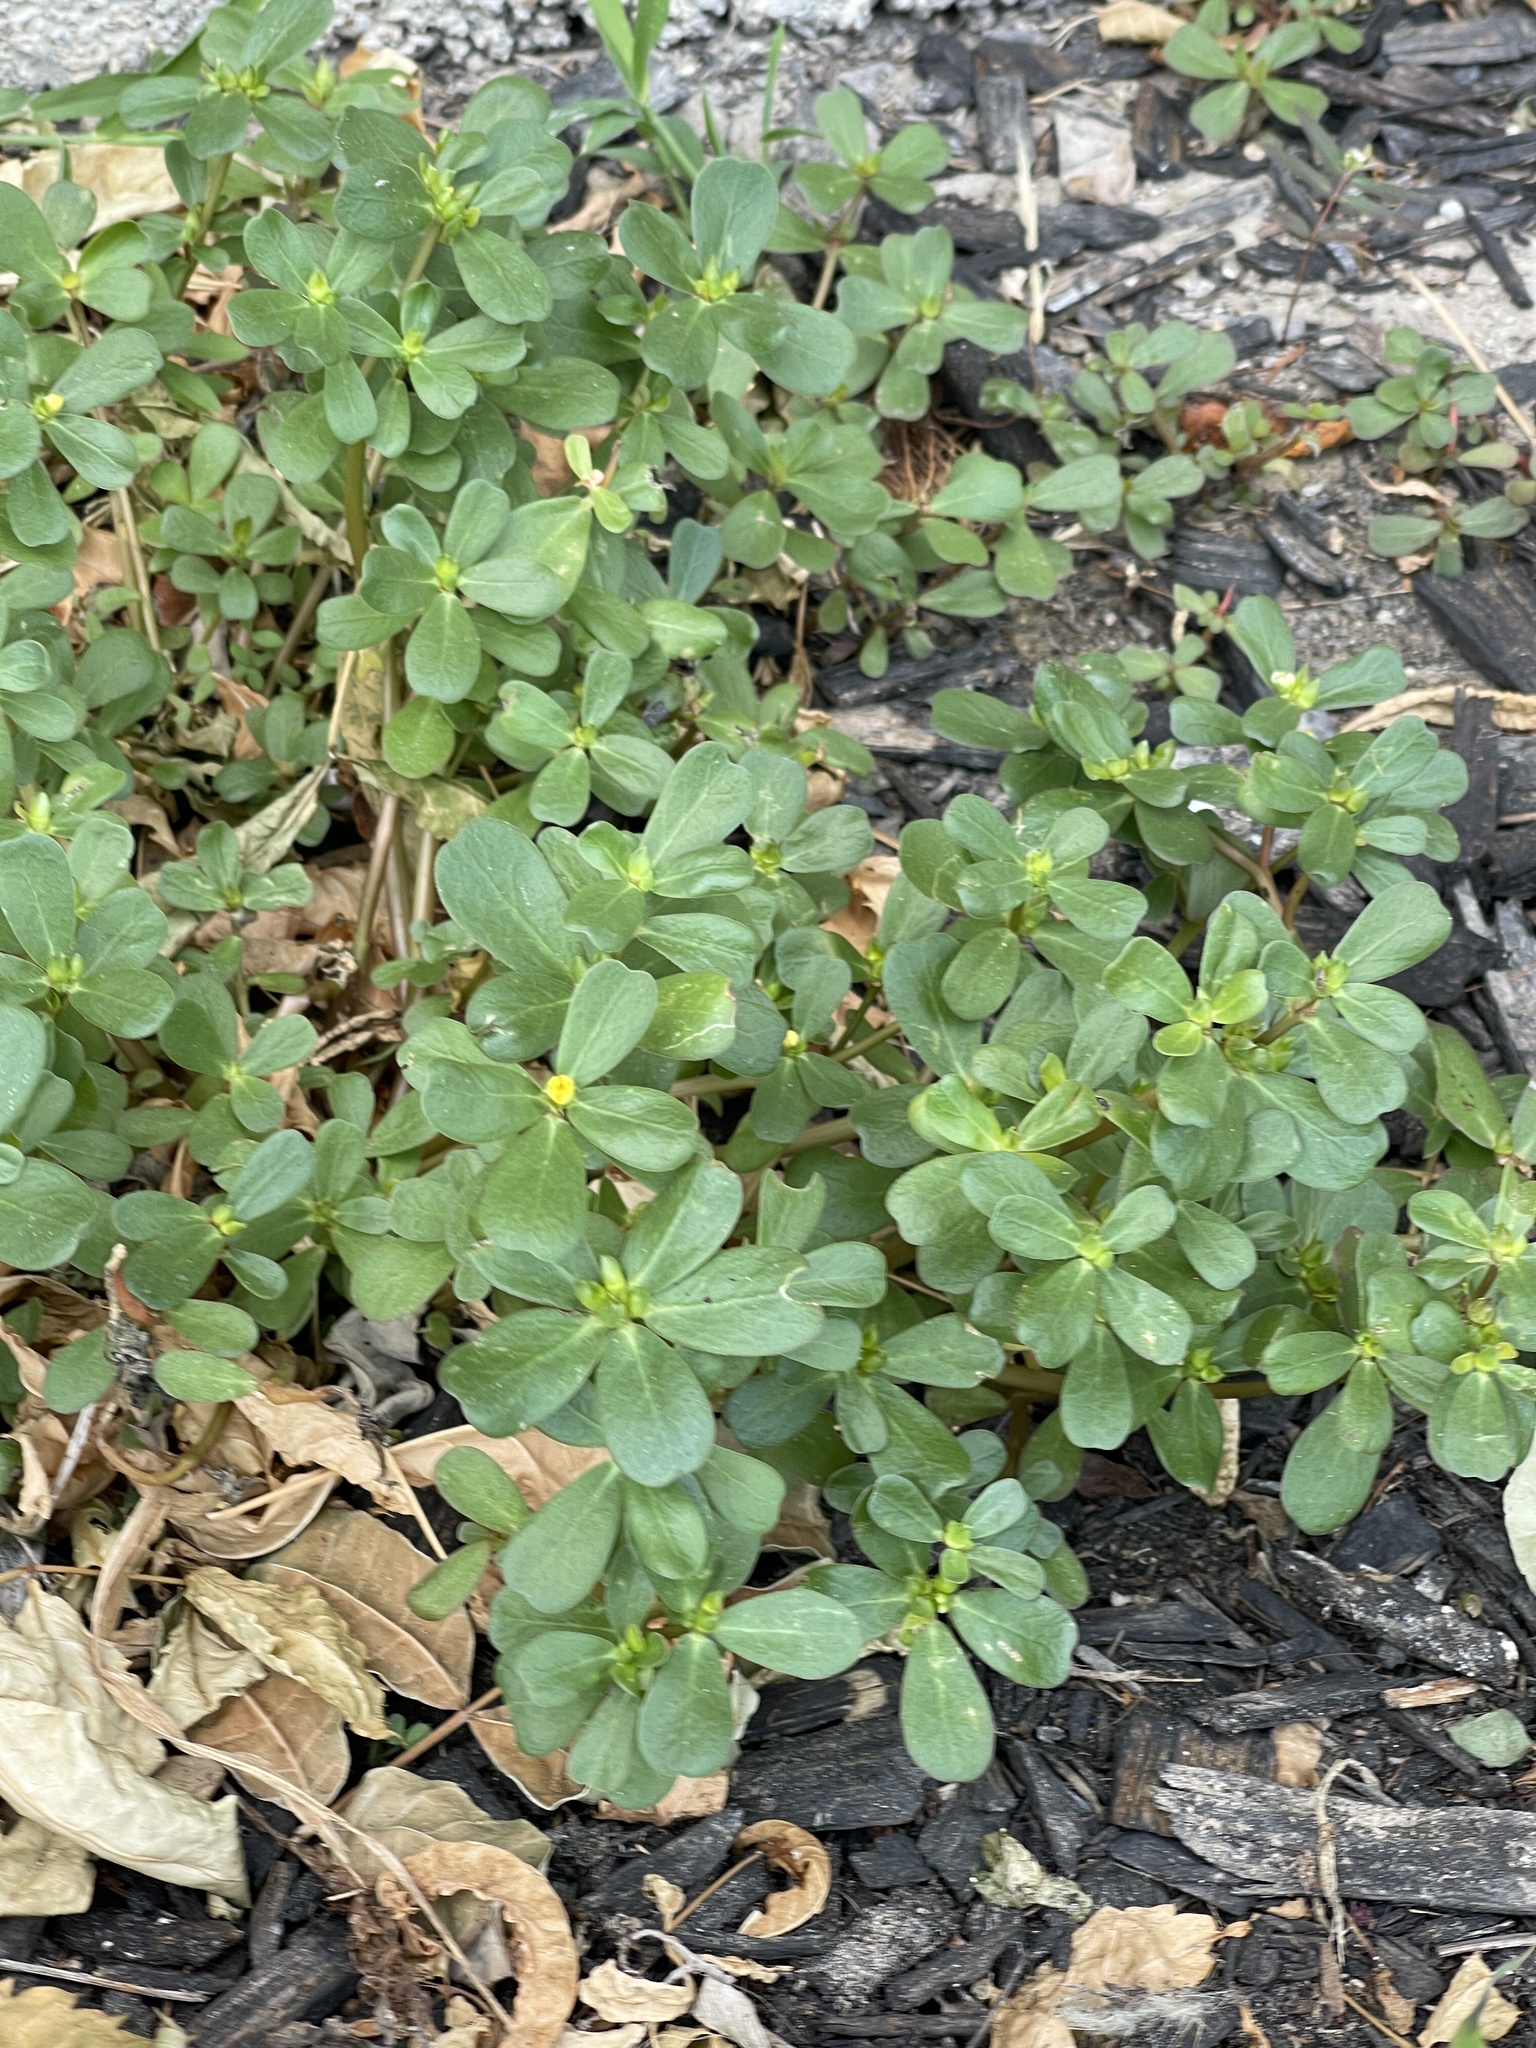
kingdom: Plantae
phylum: Tracheophyta
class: Magnoliopsida
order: Caryophyllales
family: Portulacaceae
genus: Portulaca
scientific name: Portulaca oleracea
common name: Common purslane
